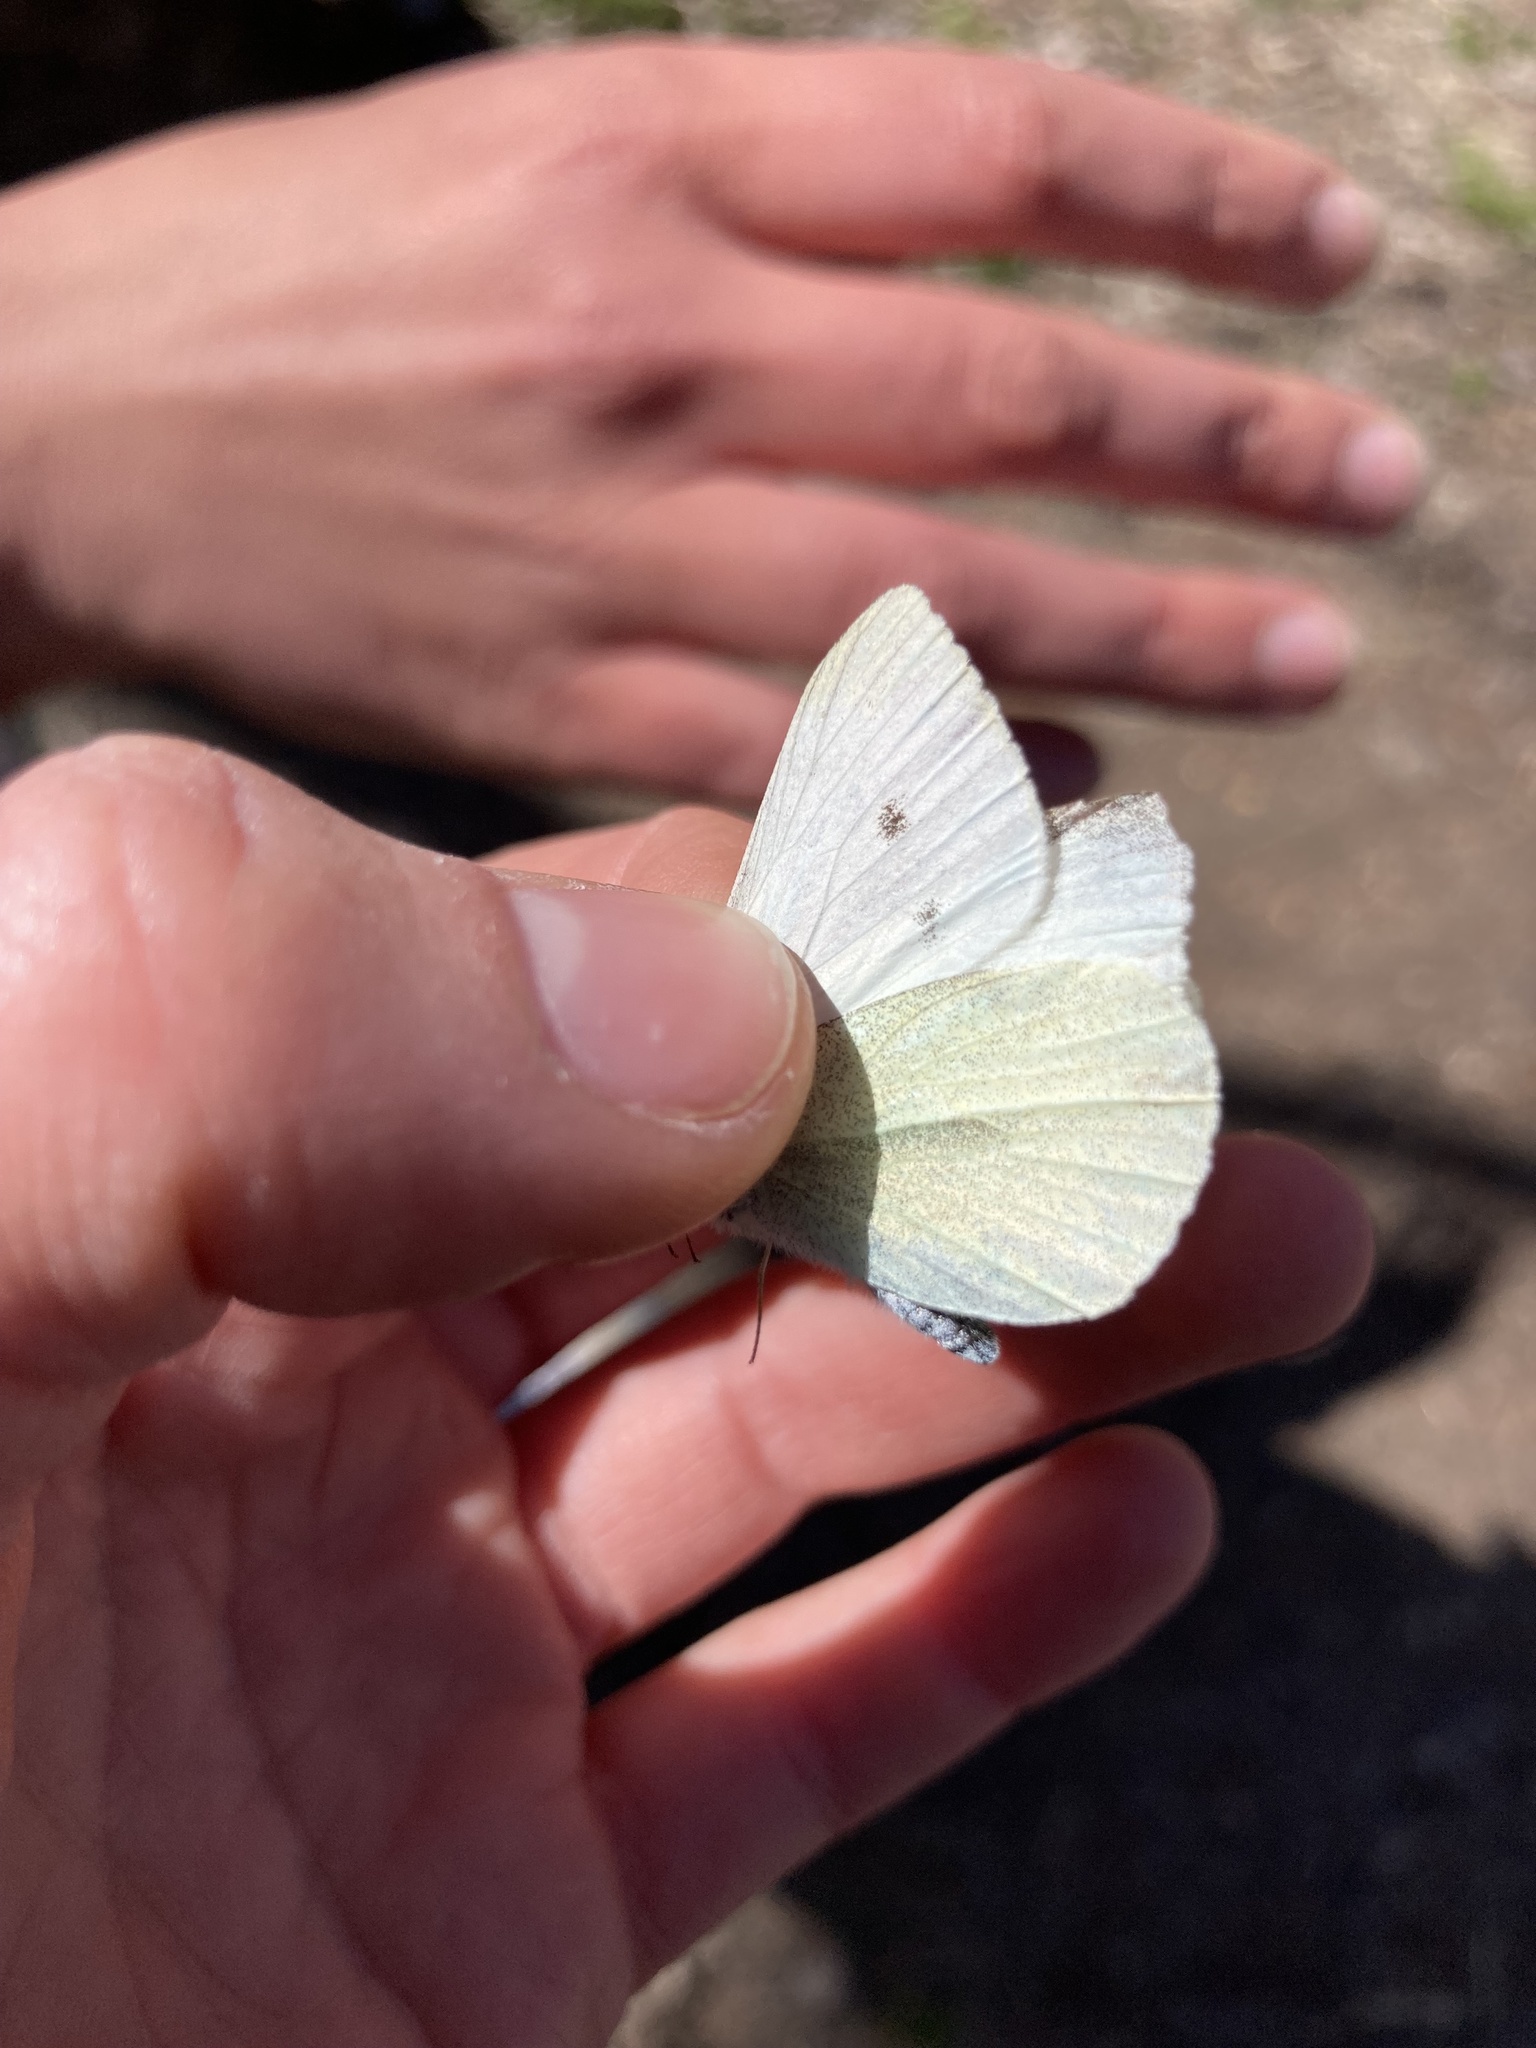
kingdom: Animalia
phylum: Arthropoda
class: Insecta
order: Lepidoptera
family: Pieridae
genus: Pieris
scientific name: Pieris rapae
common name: Small white
